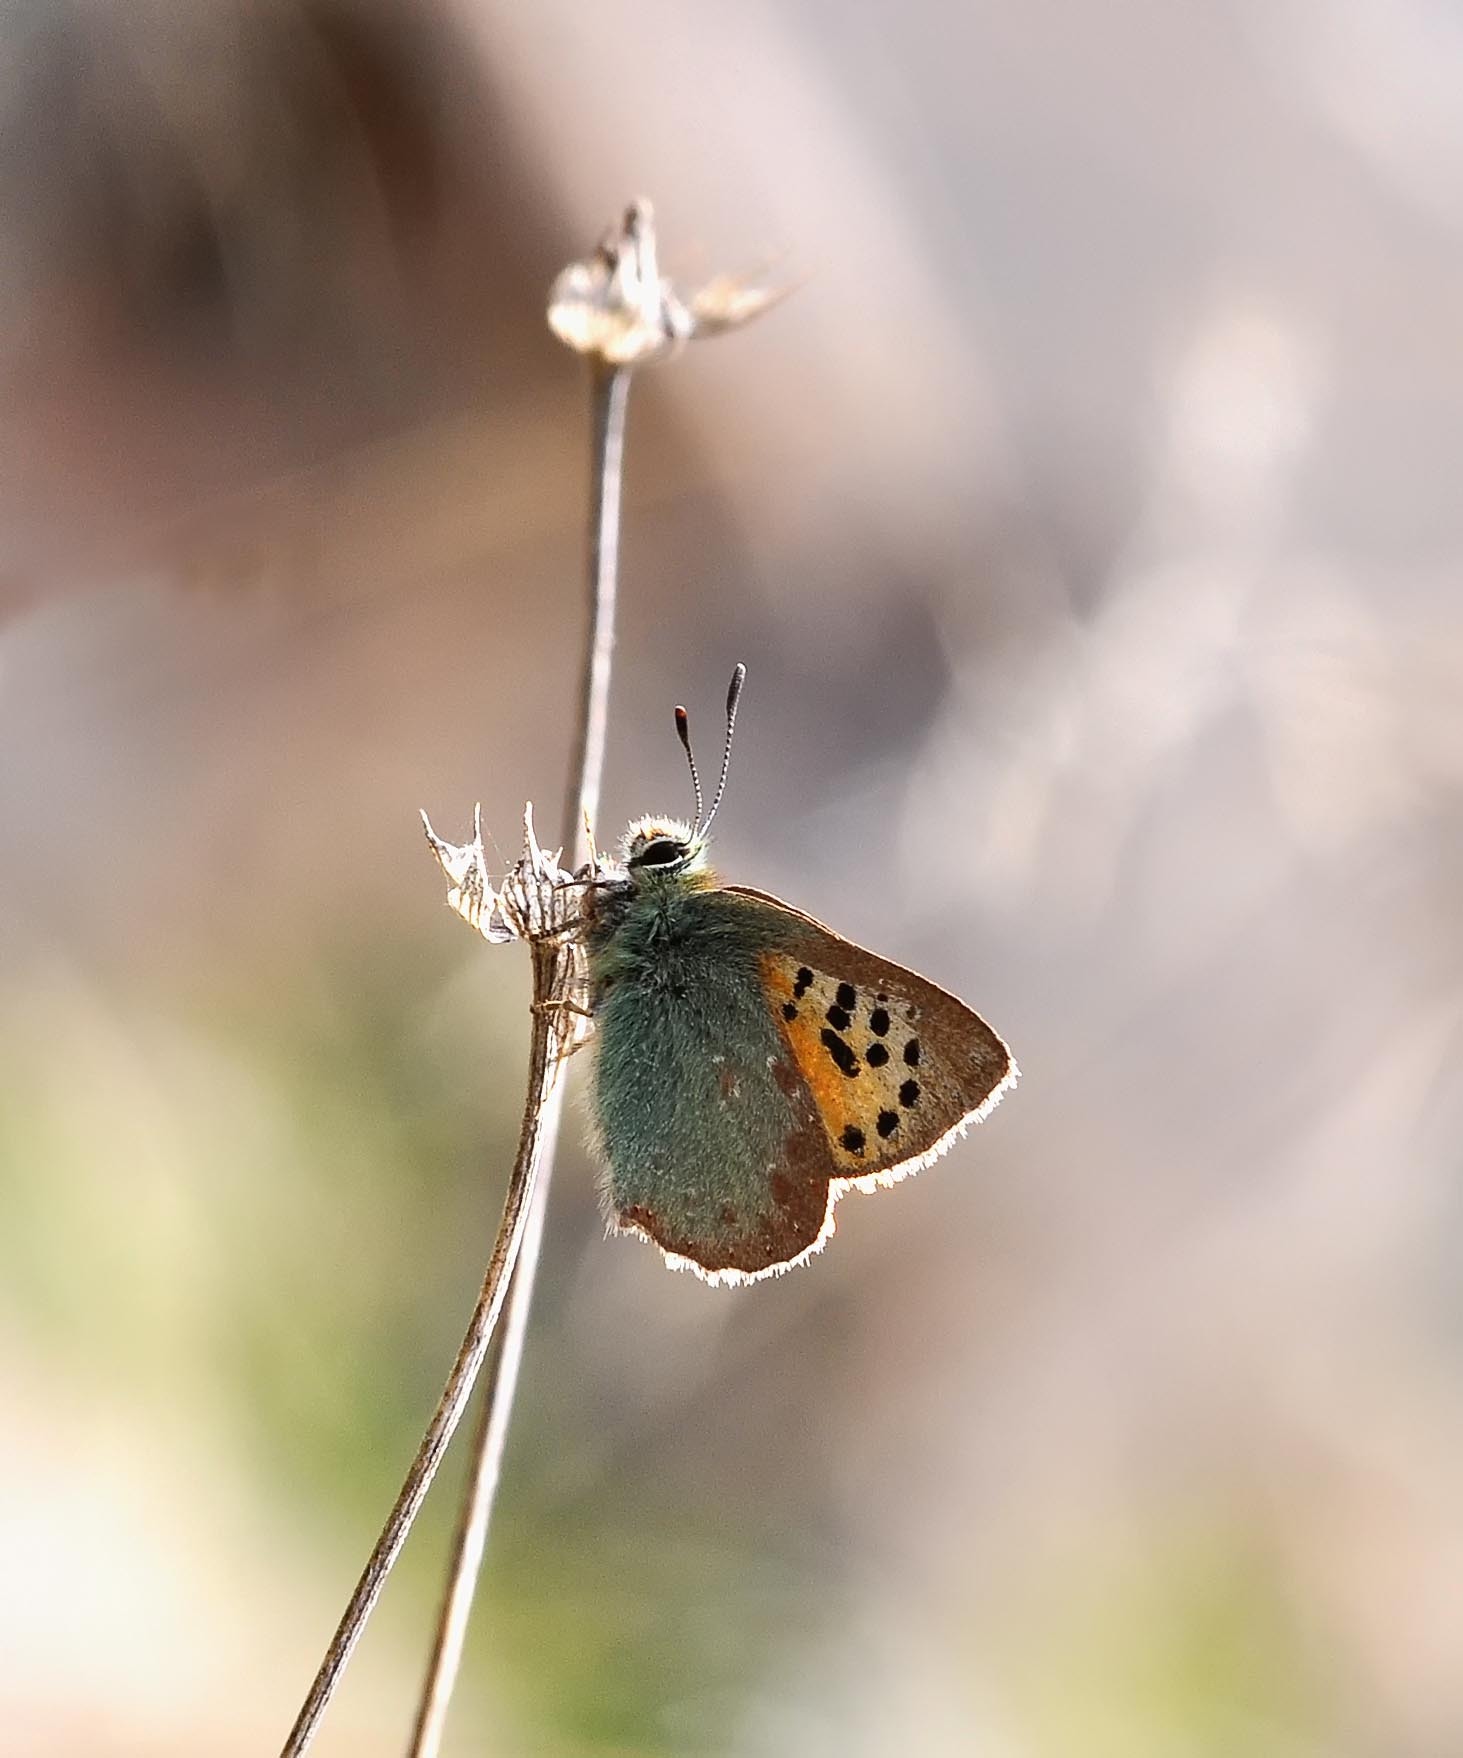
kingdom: Animalia
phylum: Arthropoda
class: Insecta
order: Lepidoptera
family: Lycaenidae
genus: Tomares
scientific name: Tomares ballus
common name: Provence hairstreak
